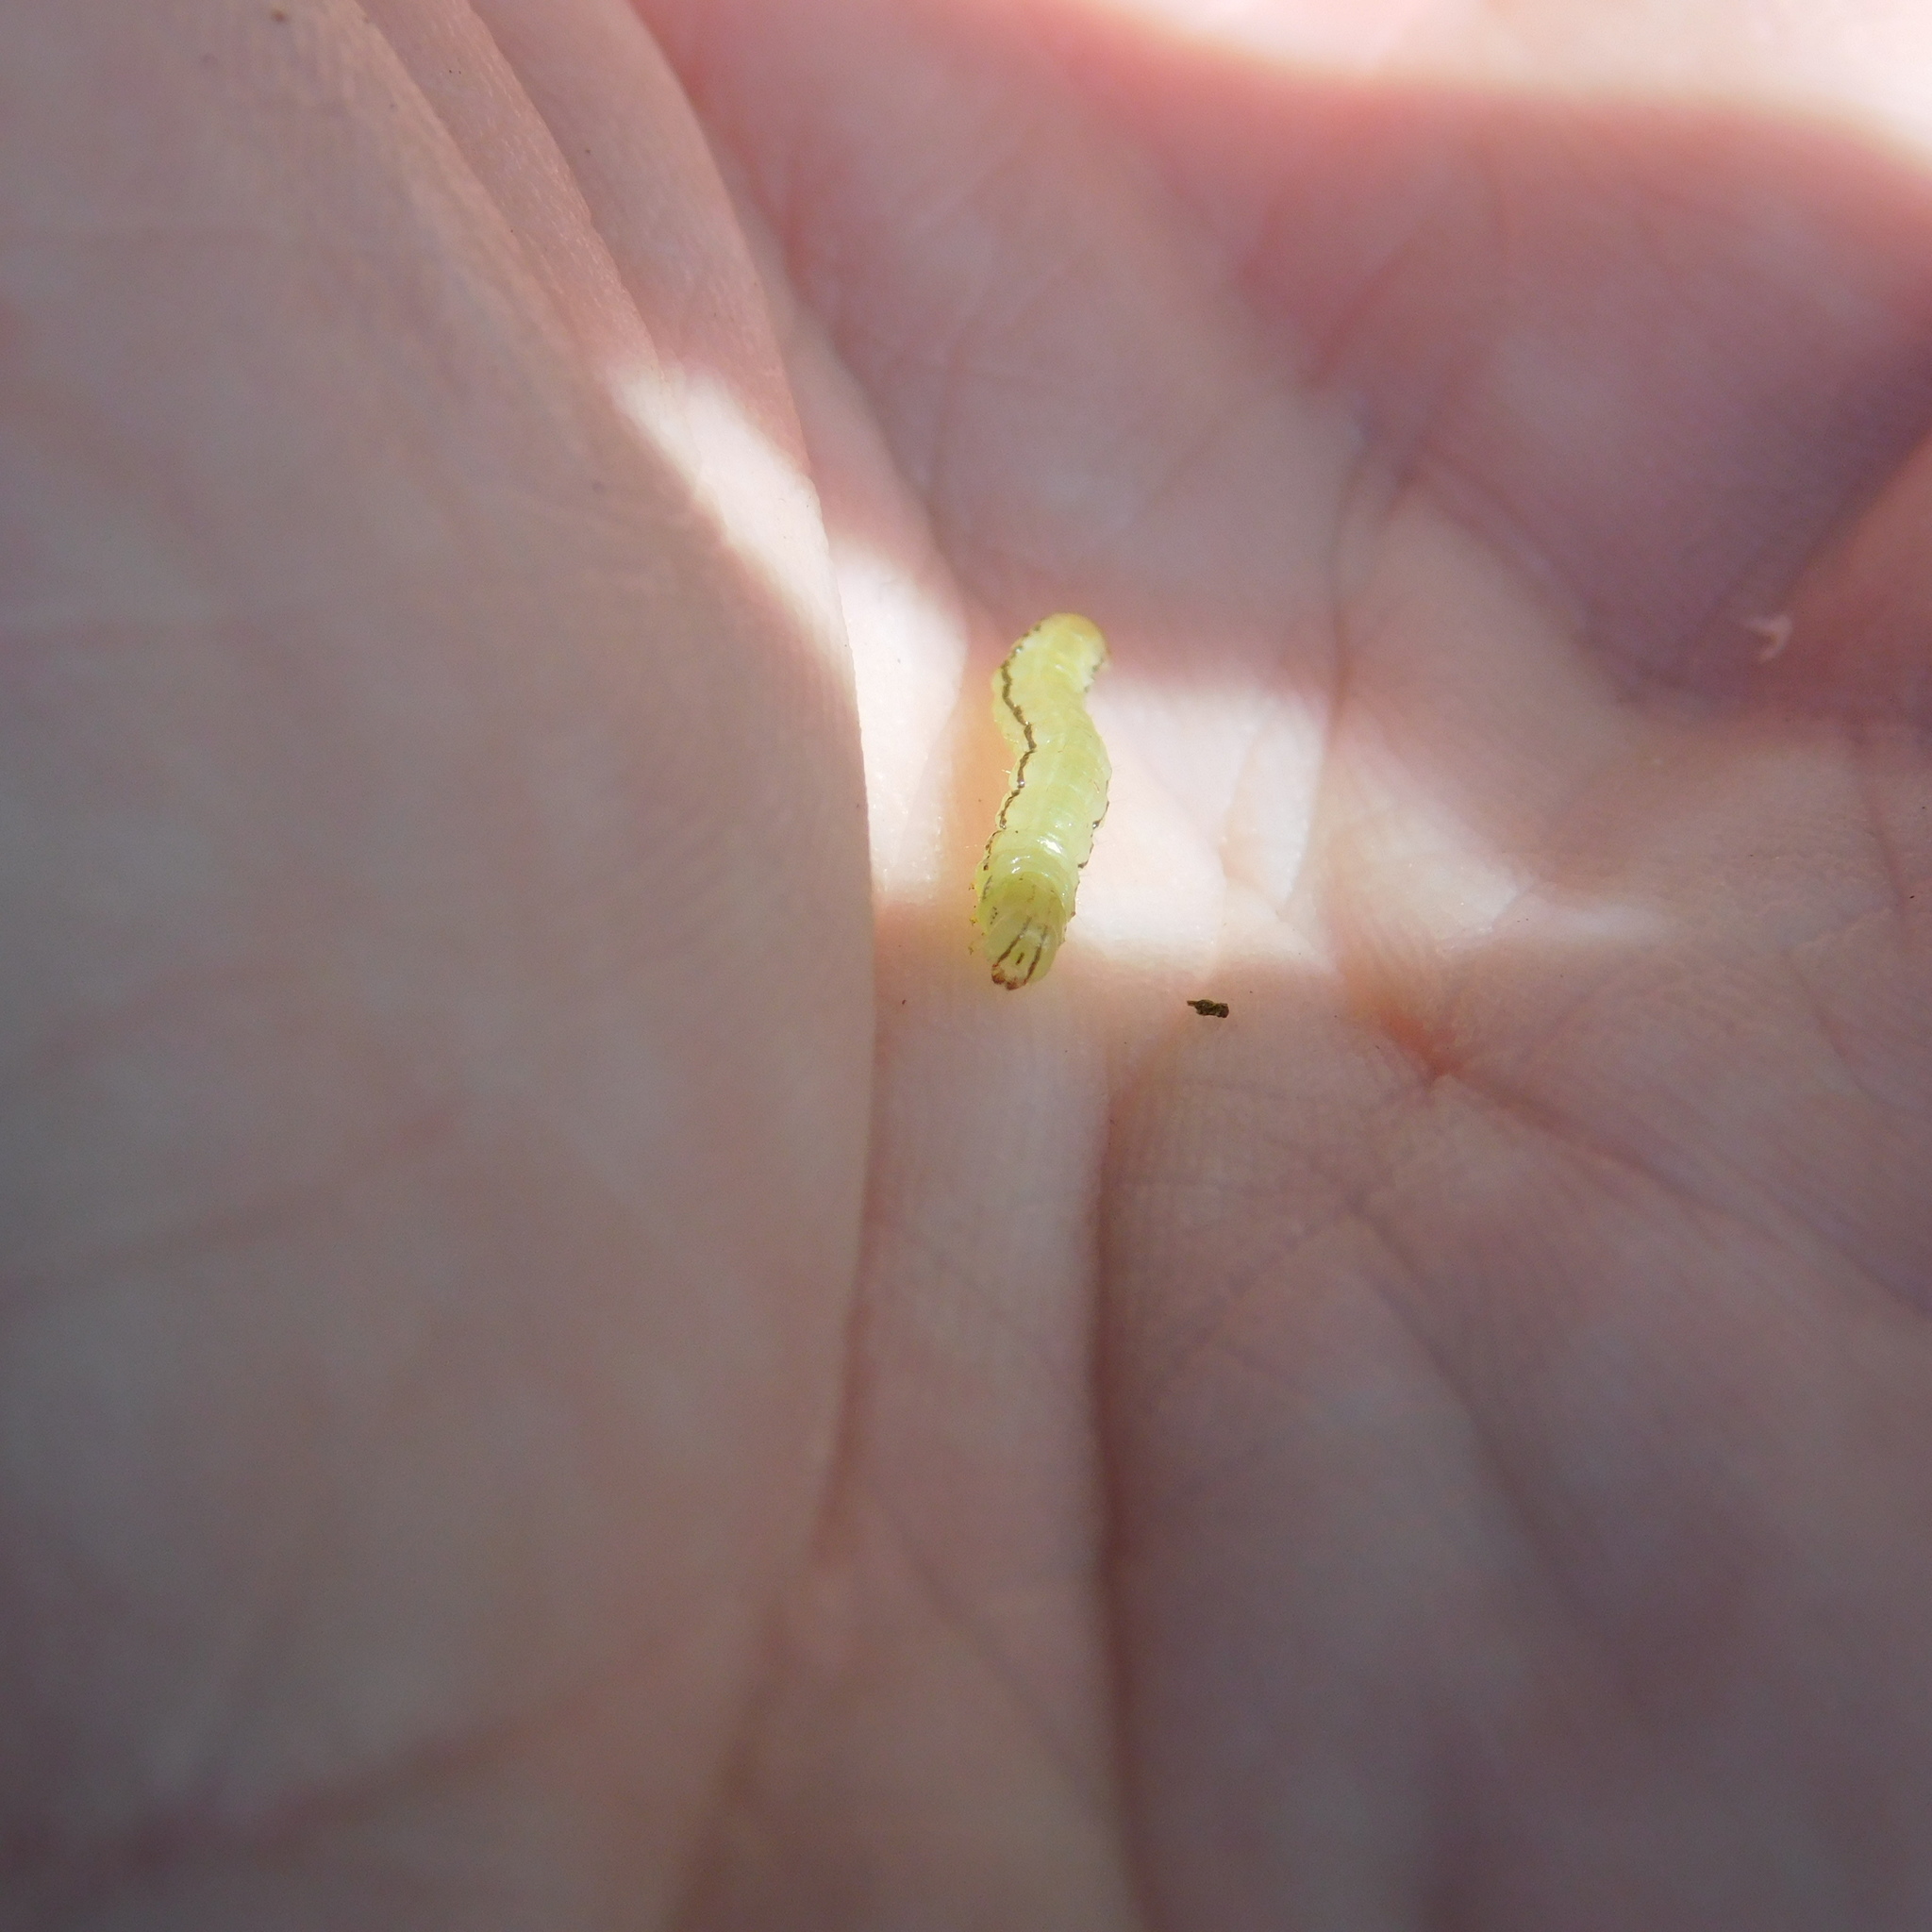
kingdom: Animalia
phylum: Arthropoda
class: Insecta
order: Lepidoptera
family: Geometridae
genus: Epiphryne
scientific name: Epiphryne verriculata
